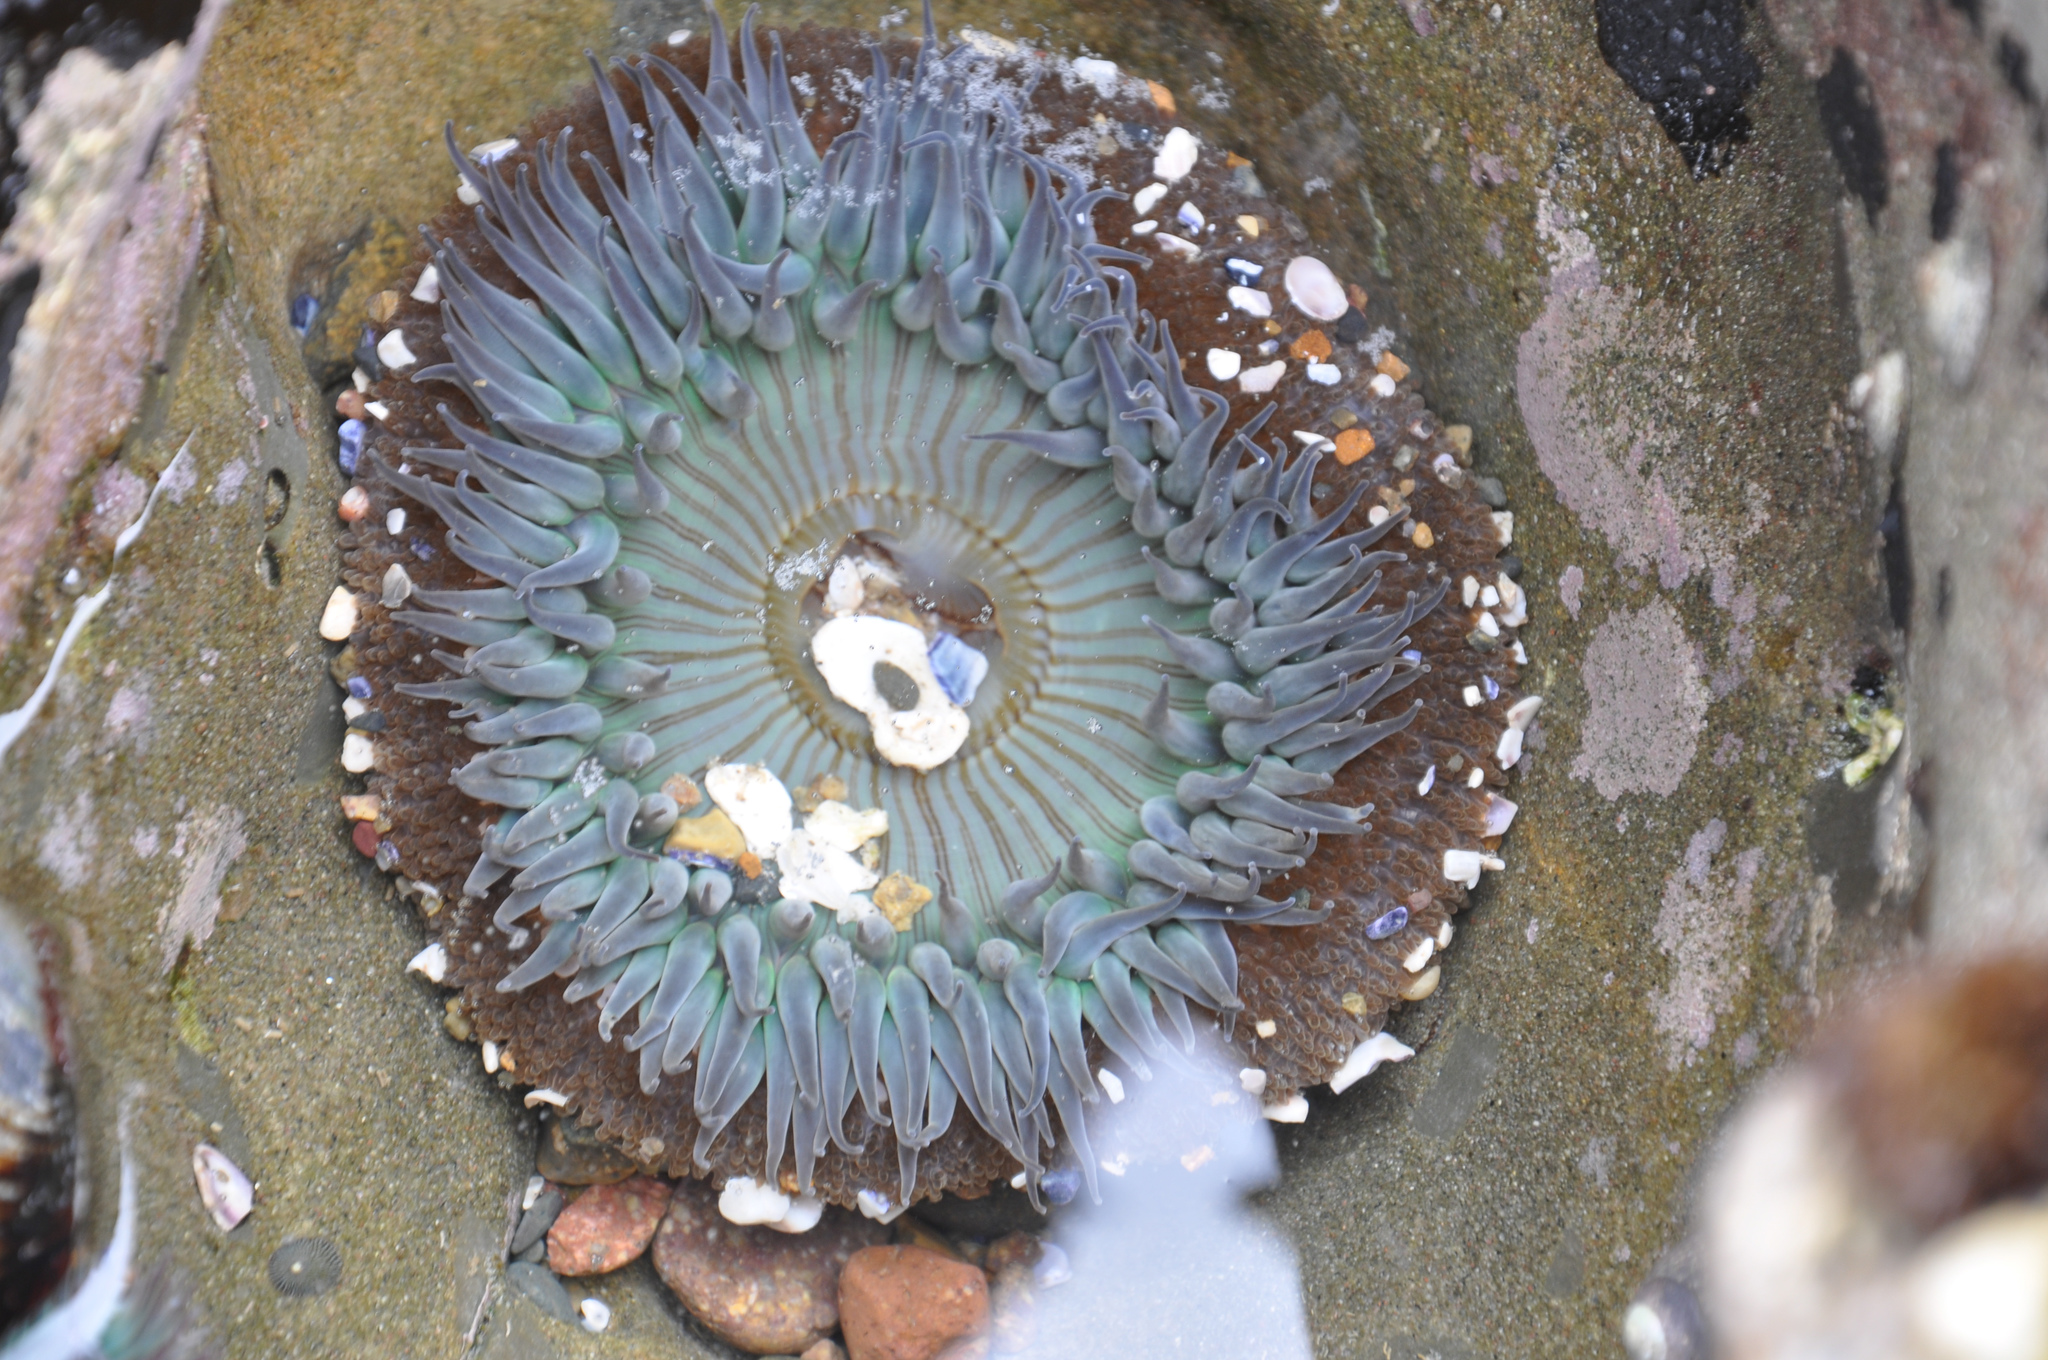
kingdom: Animalia
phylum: Cnidaria
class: Anthozoa
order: Actiniaria
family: Actiniidae
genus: Anthopleura
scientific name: Anthopleura sola
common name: Sun anemone
